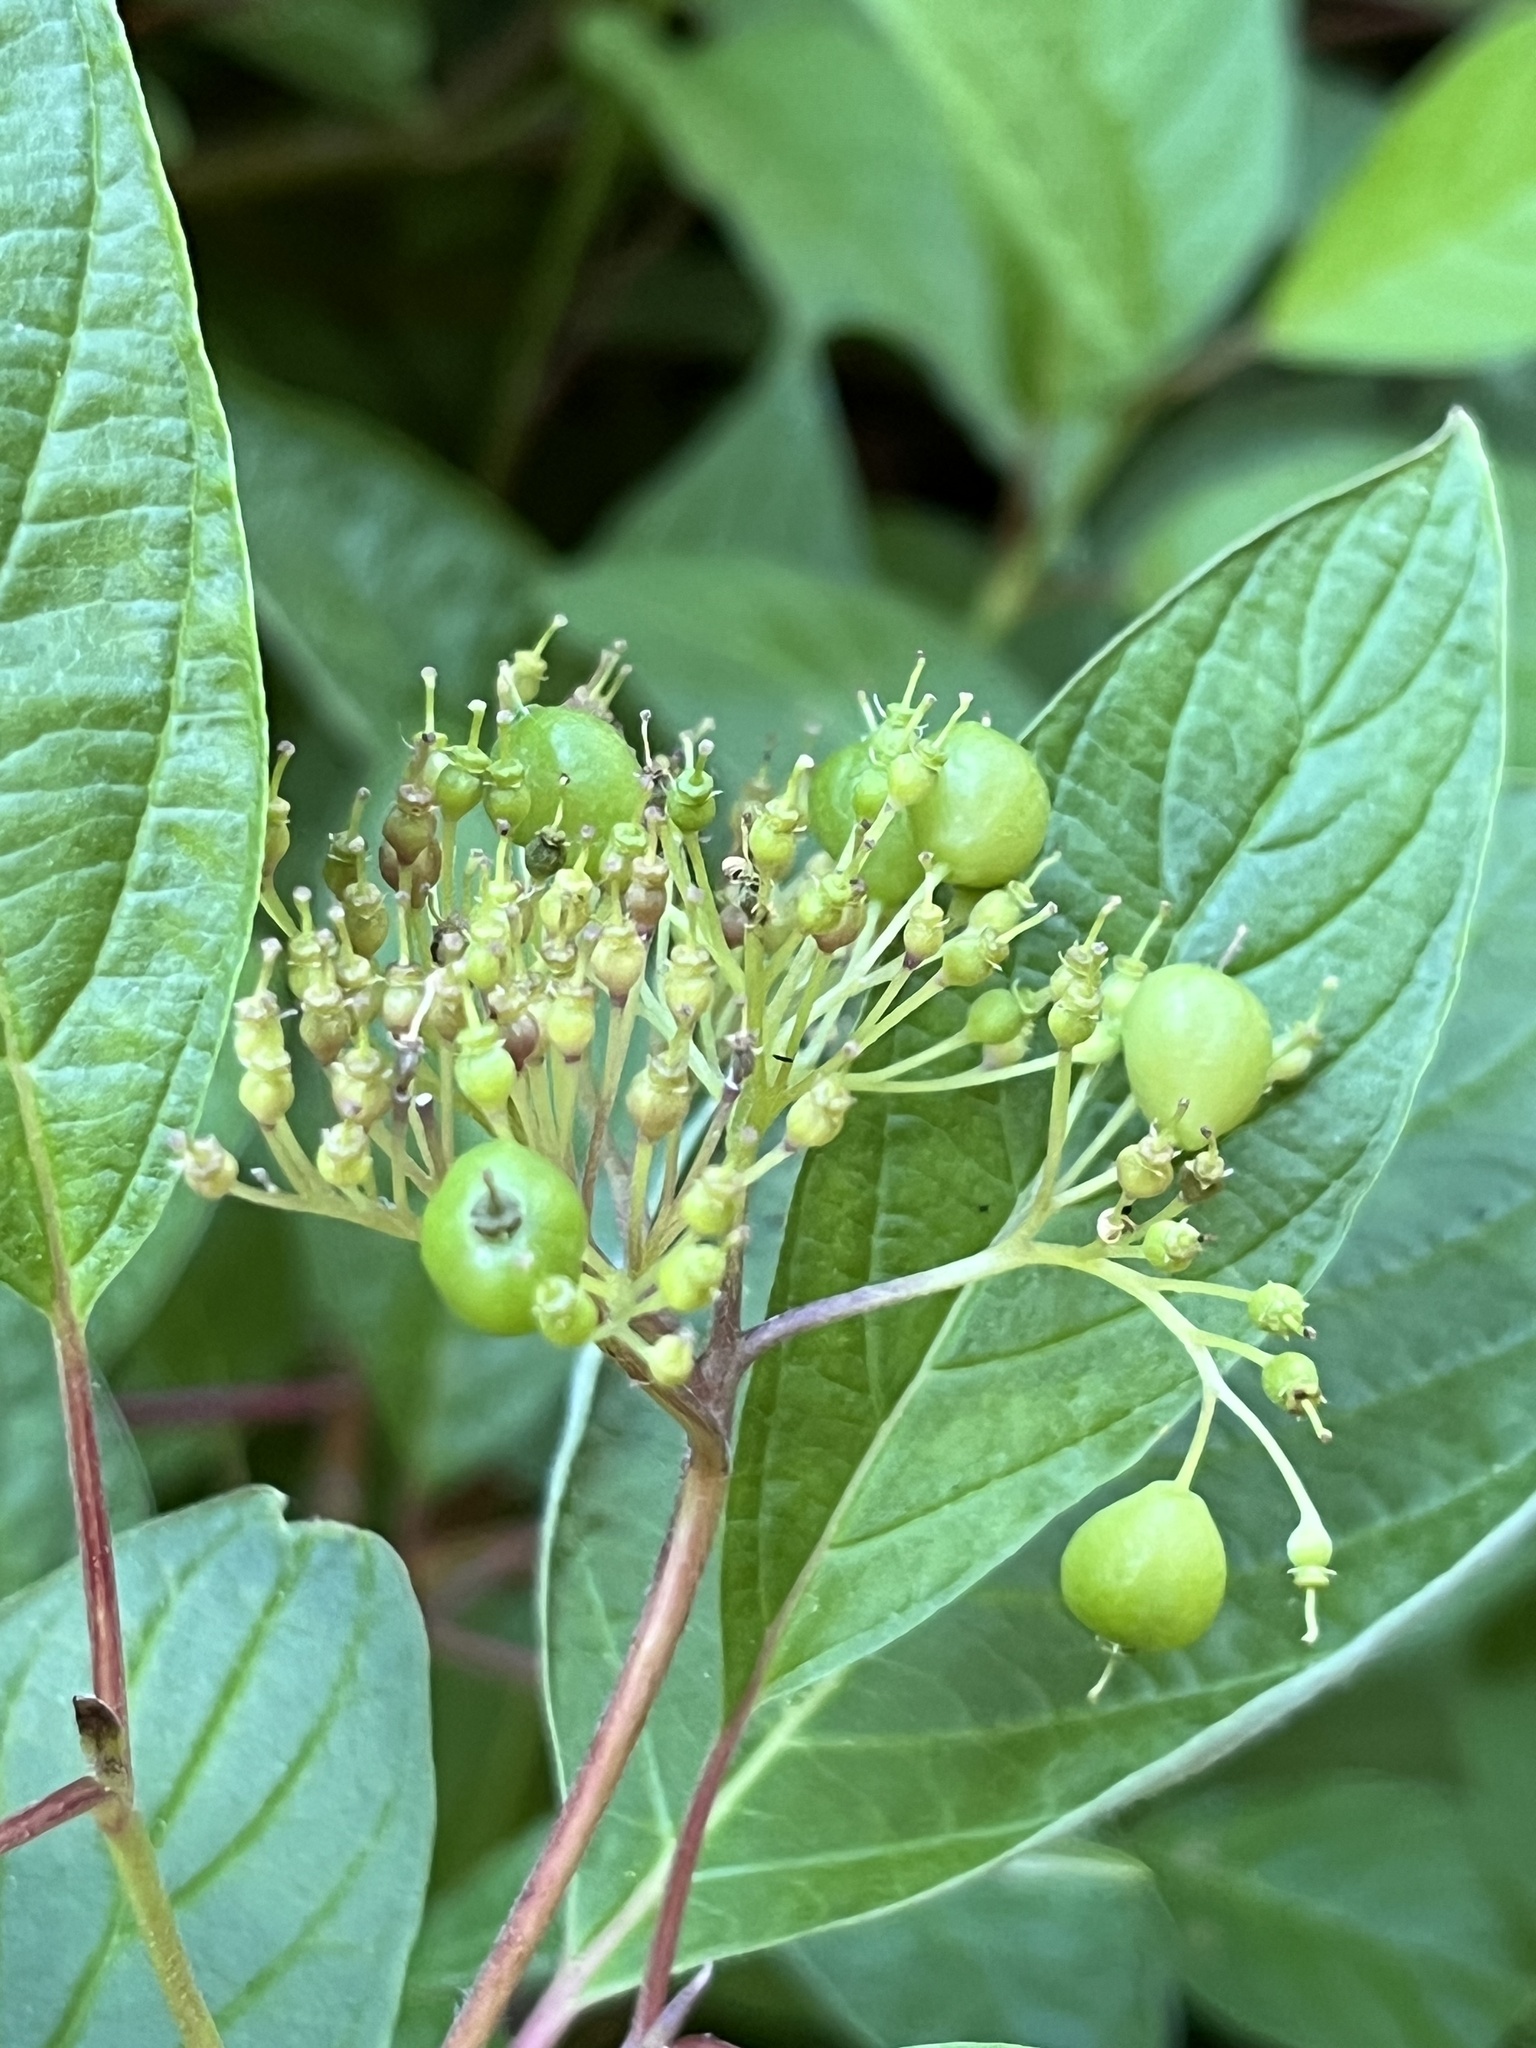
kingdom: Plantae
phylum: Tracheophyta
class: Magnoliopsida
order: Cornales
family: Cornaceae
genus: Cornus
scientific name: Cornus sericea
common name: Red-osier dogwood
